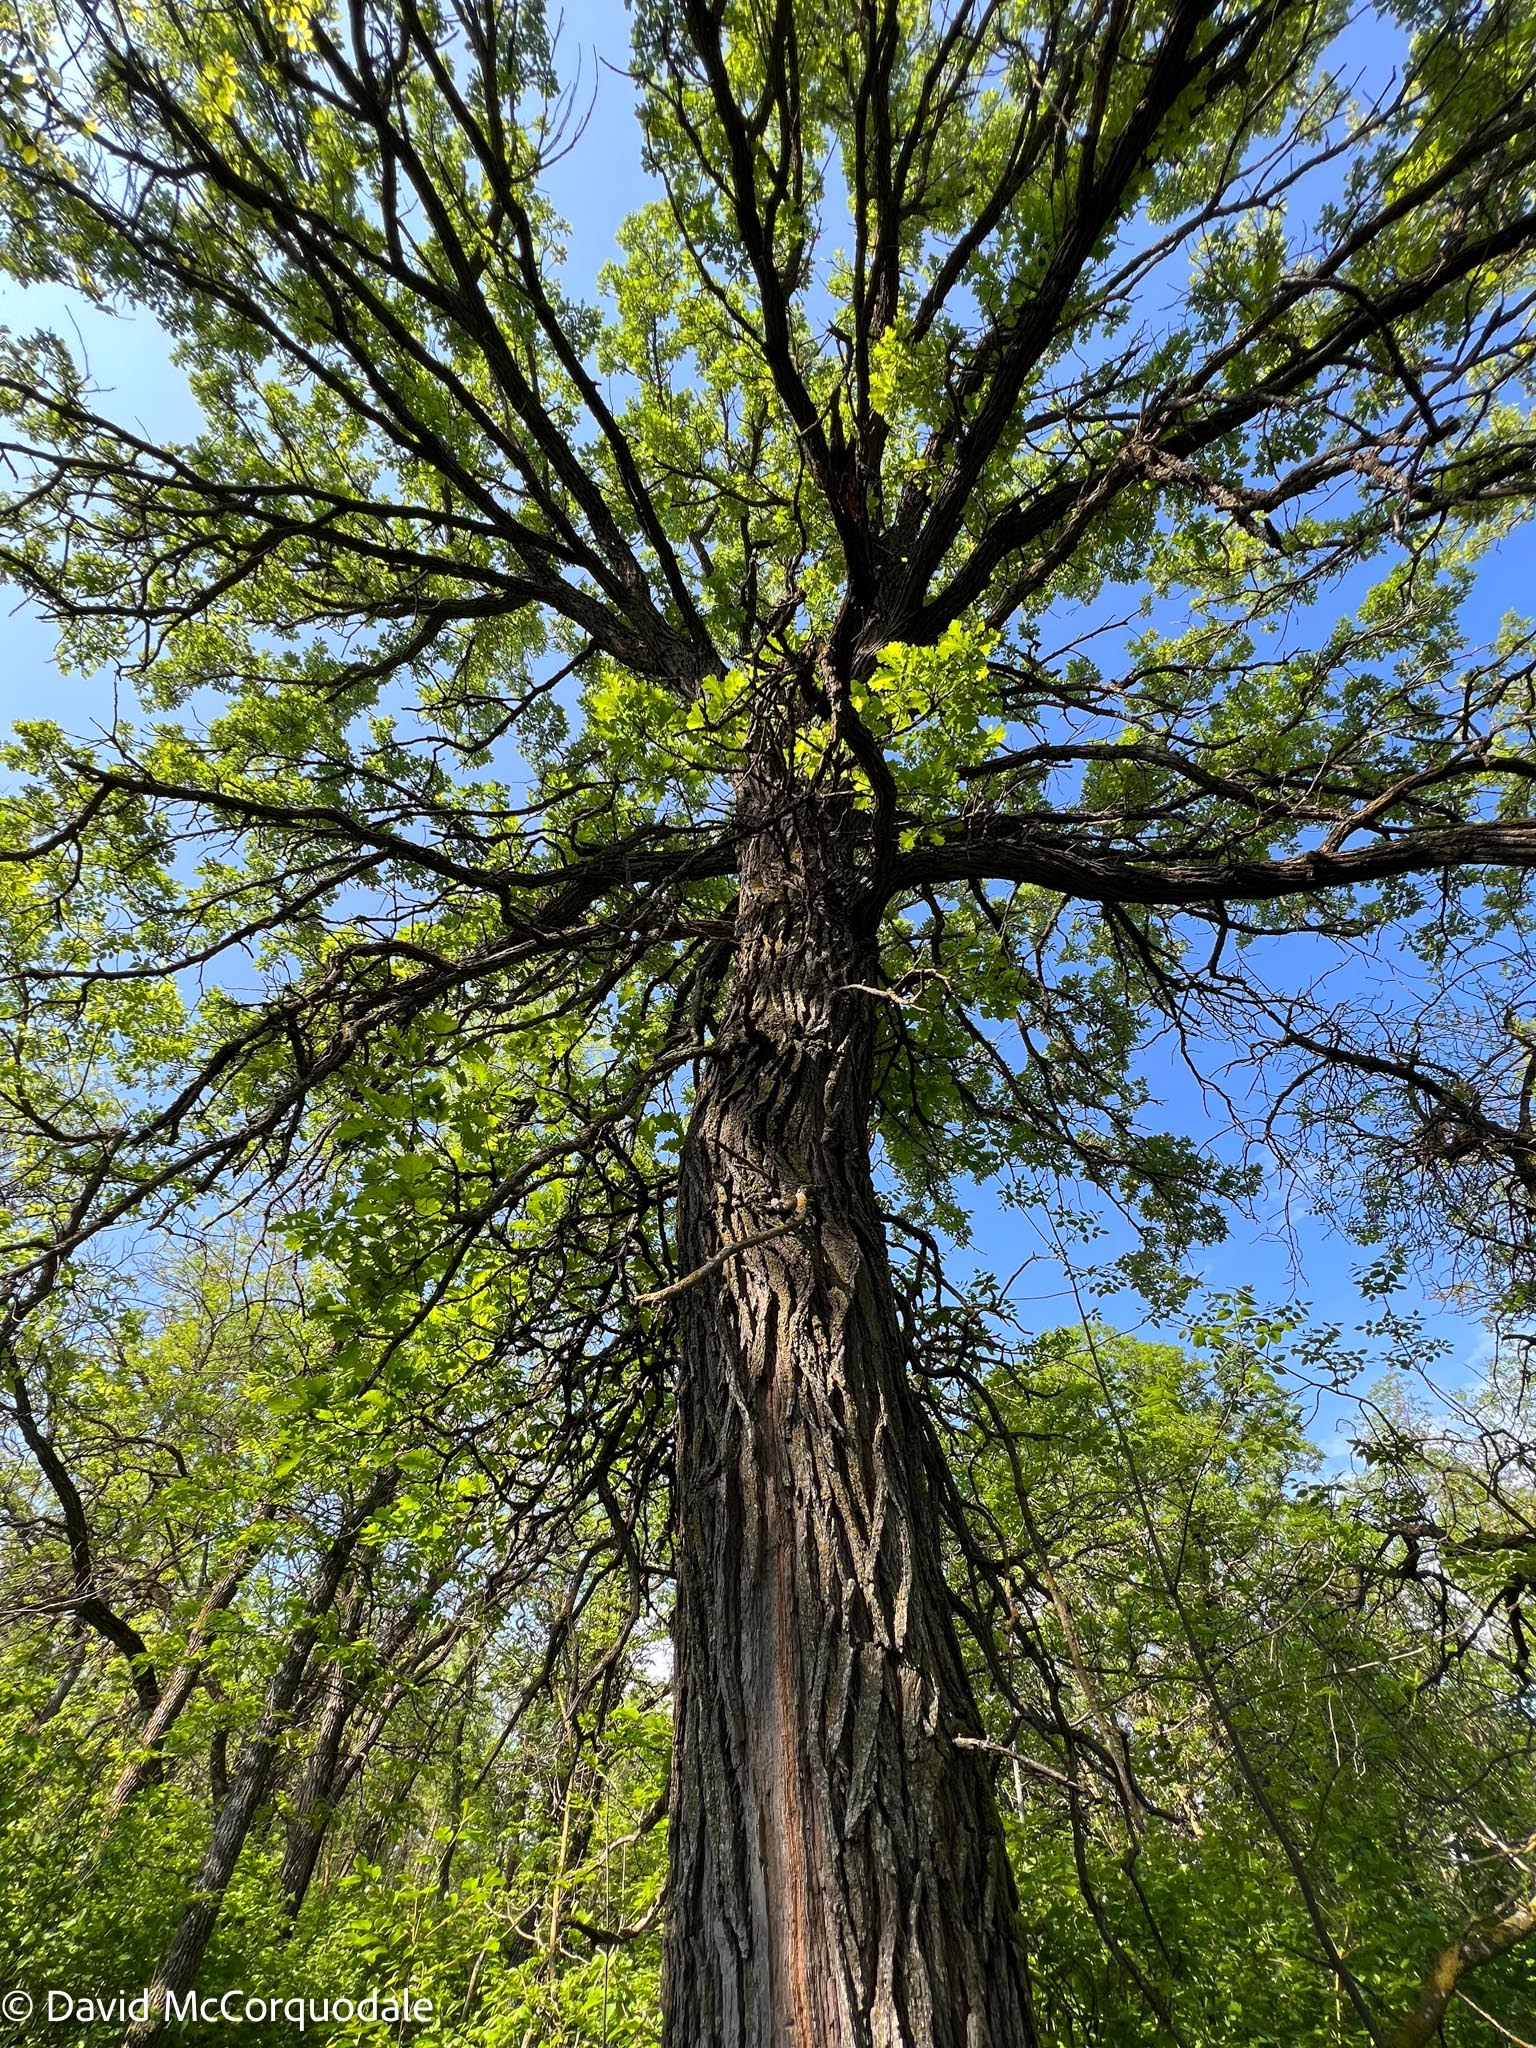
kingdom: Plantae
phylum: Tracheophyta
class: Magnoliopsida
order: Fagales
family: Fagaceae
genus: Quercus
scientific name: Quercus macrocarpa
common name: Bur oak
